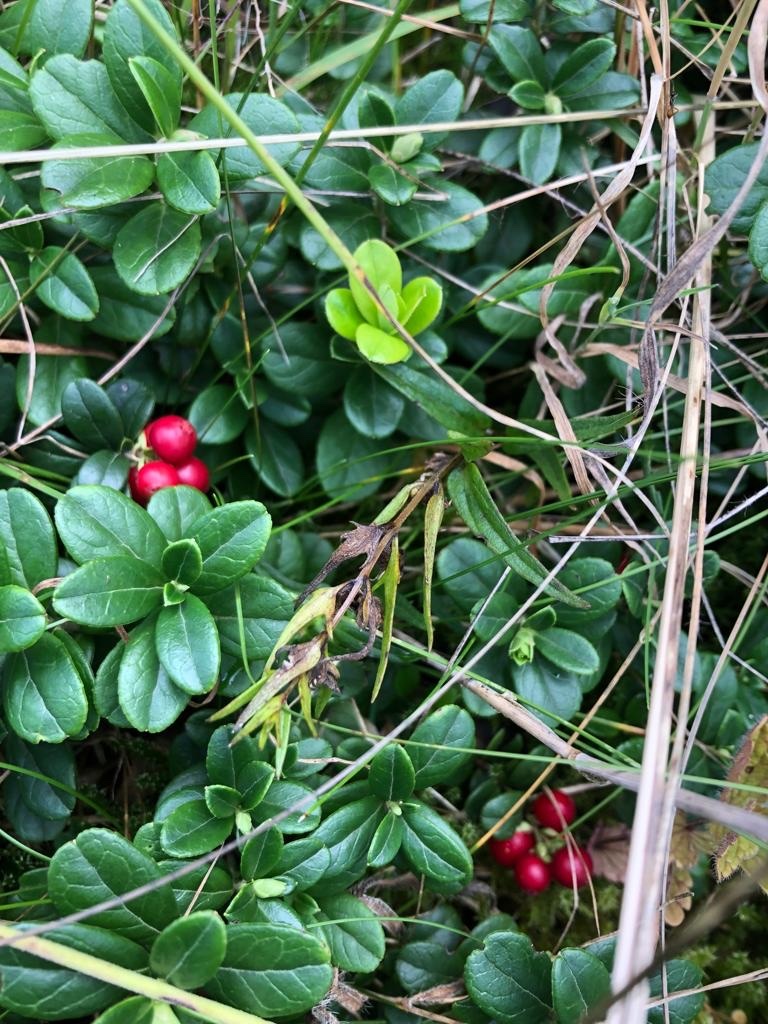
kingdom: Plantae
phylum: Tracheophyta
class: Magnoliopsida
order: Ericales
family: Ericaceae
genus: Vaccinium
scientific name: Vaccinium vitis-idaea
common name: Cowberry
